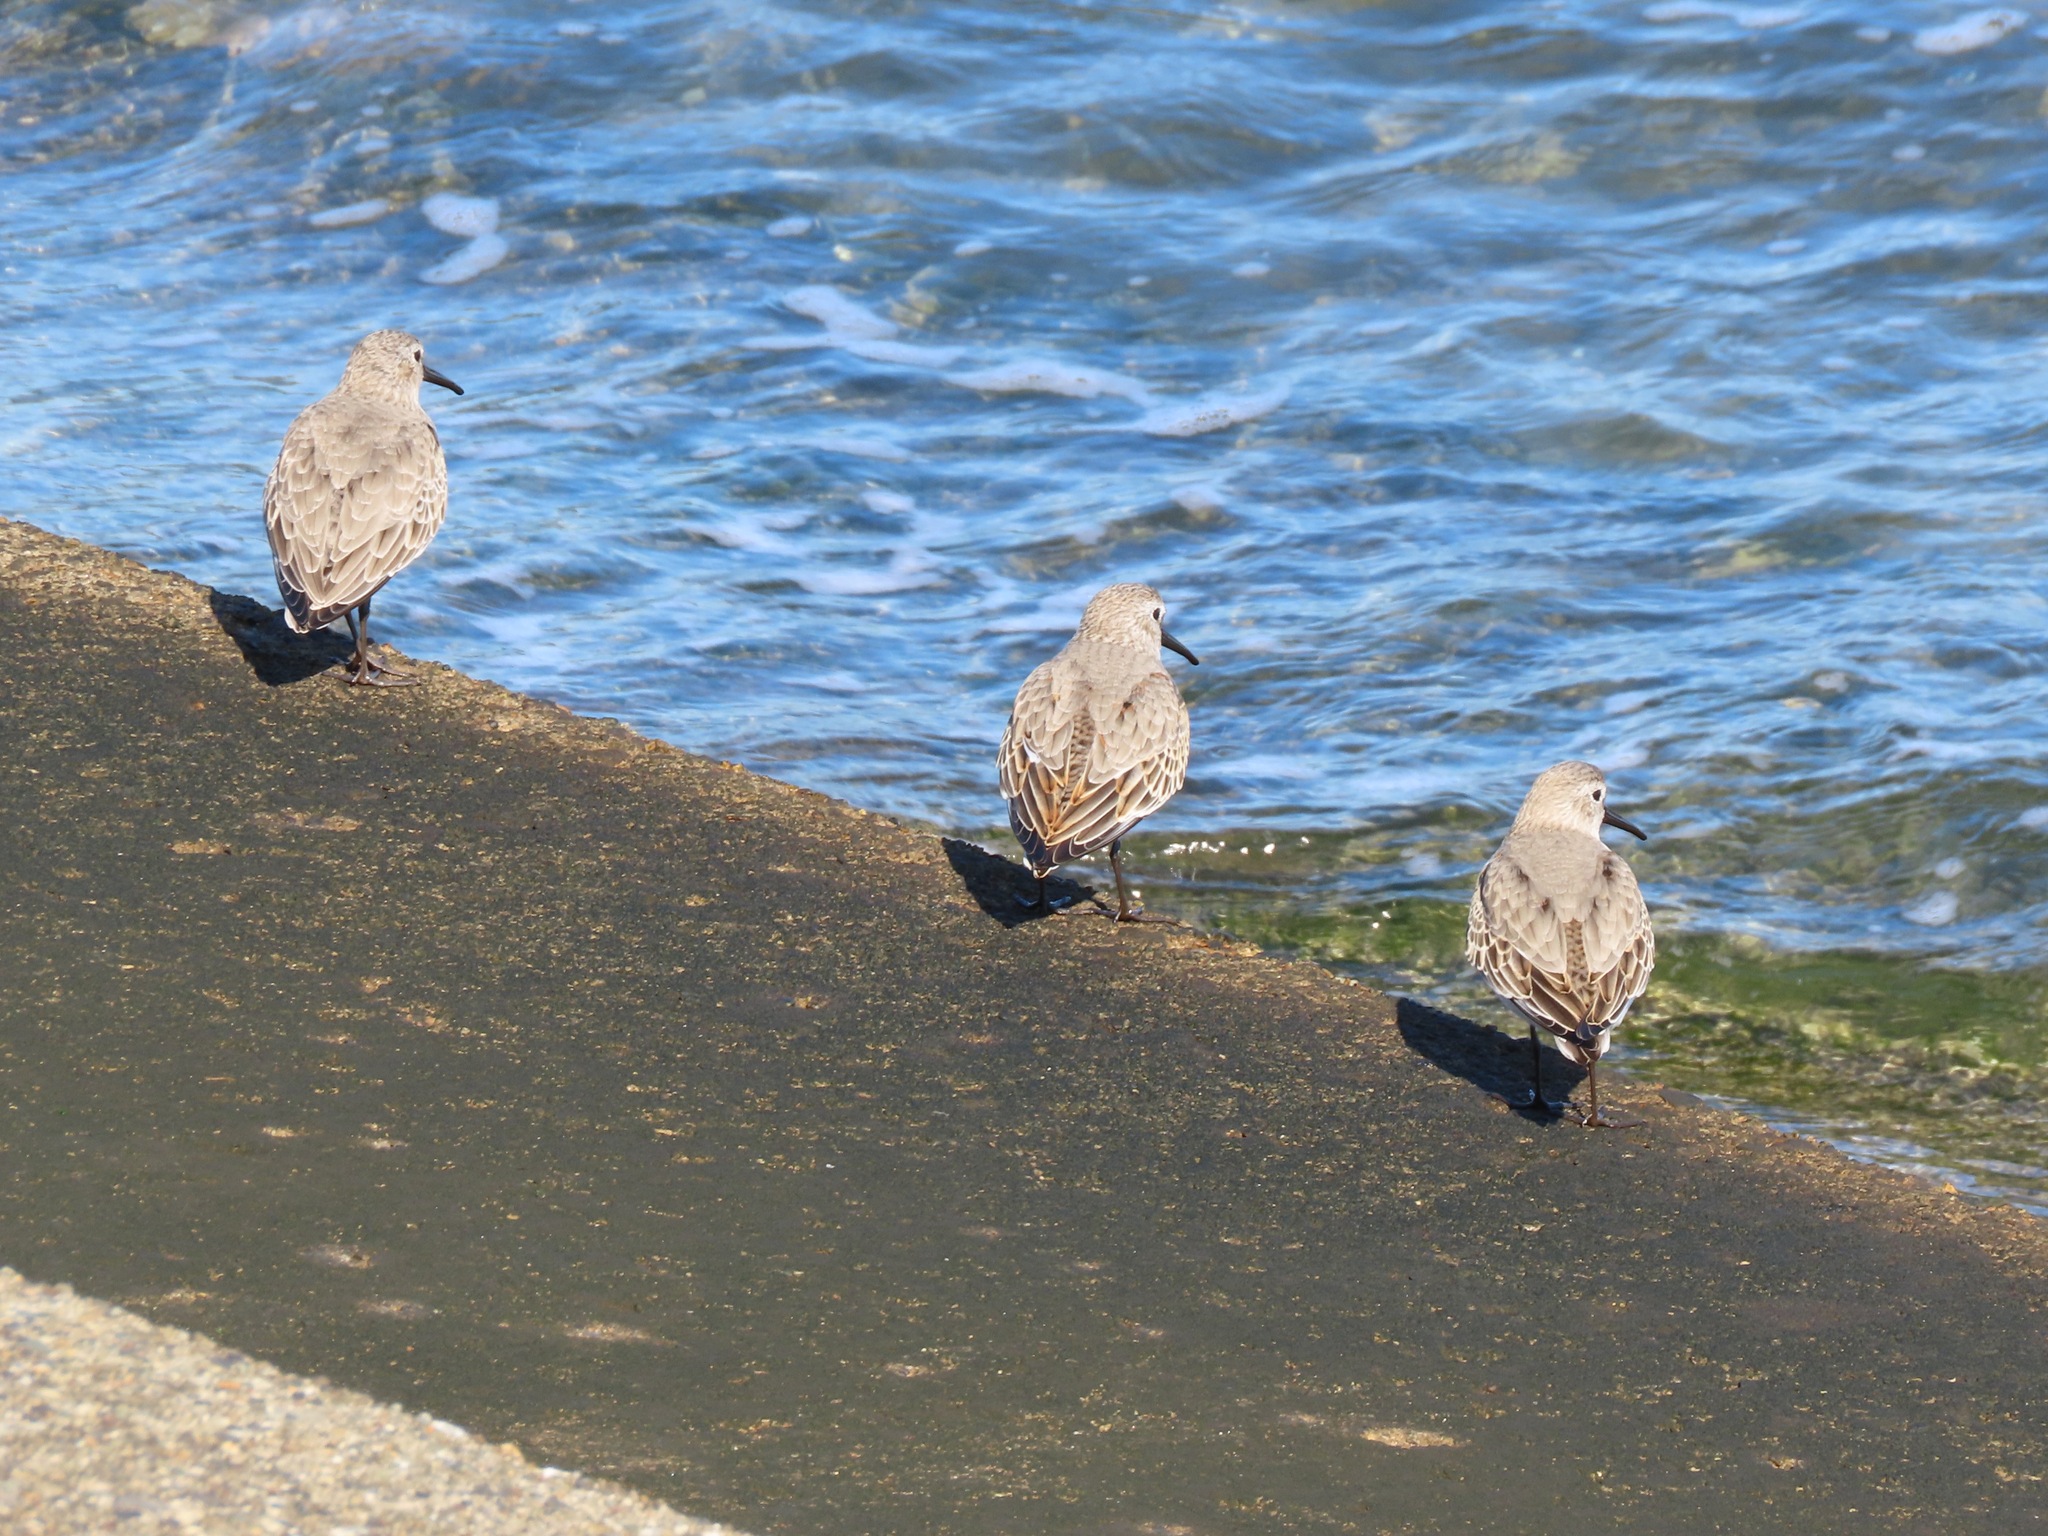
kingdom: Animalia
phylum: Chordata
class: Aves
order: Charadriiformes
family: Scolopacidae
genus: Calidris
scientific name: Calidris alpina
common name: Dunlin
